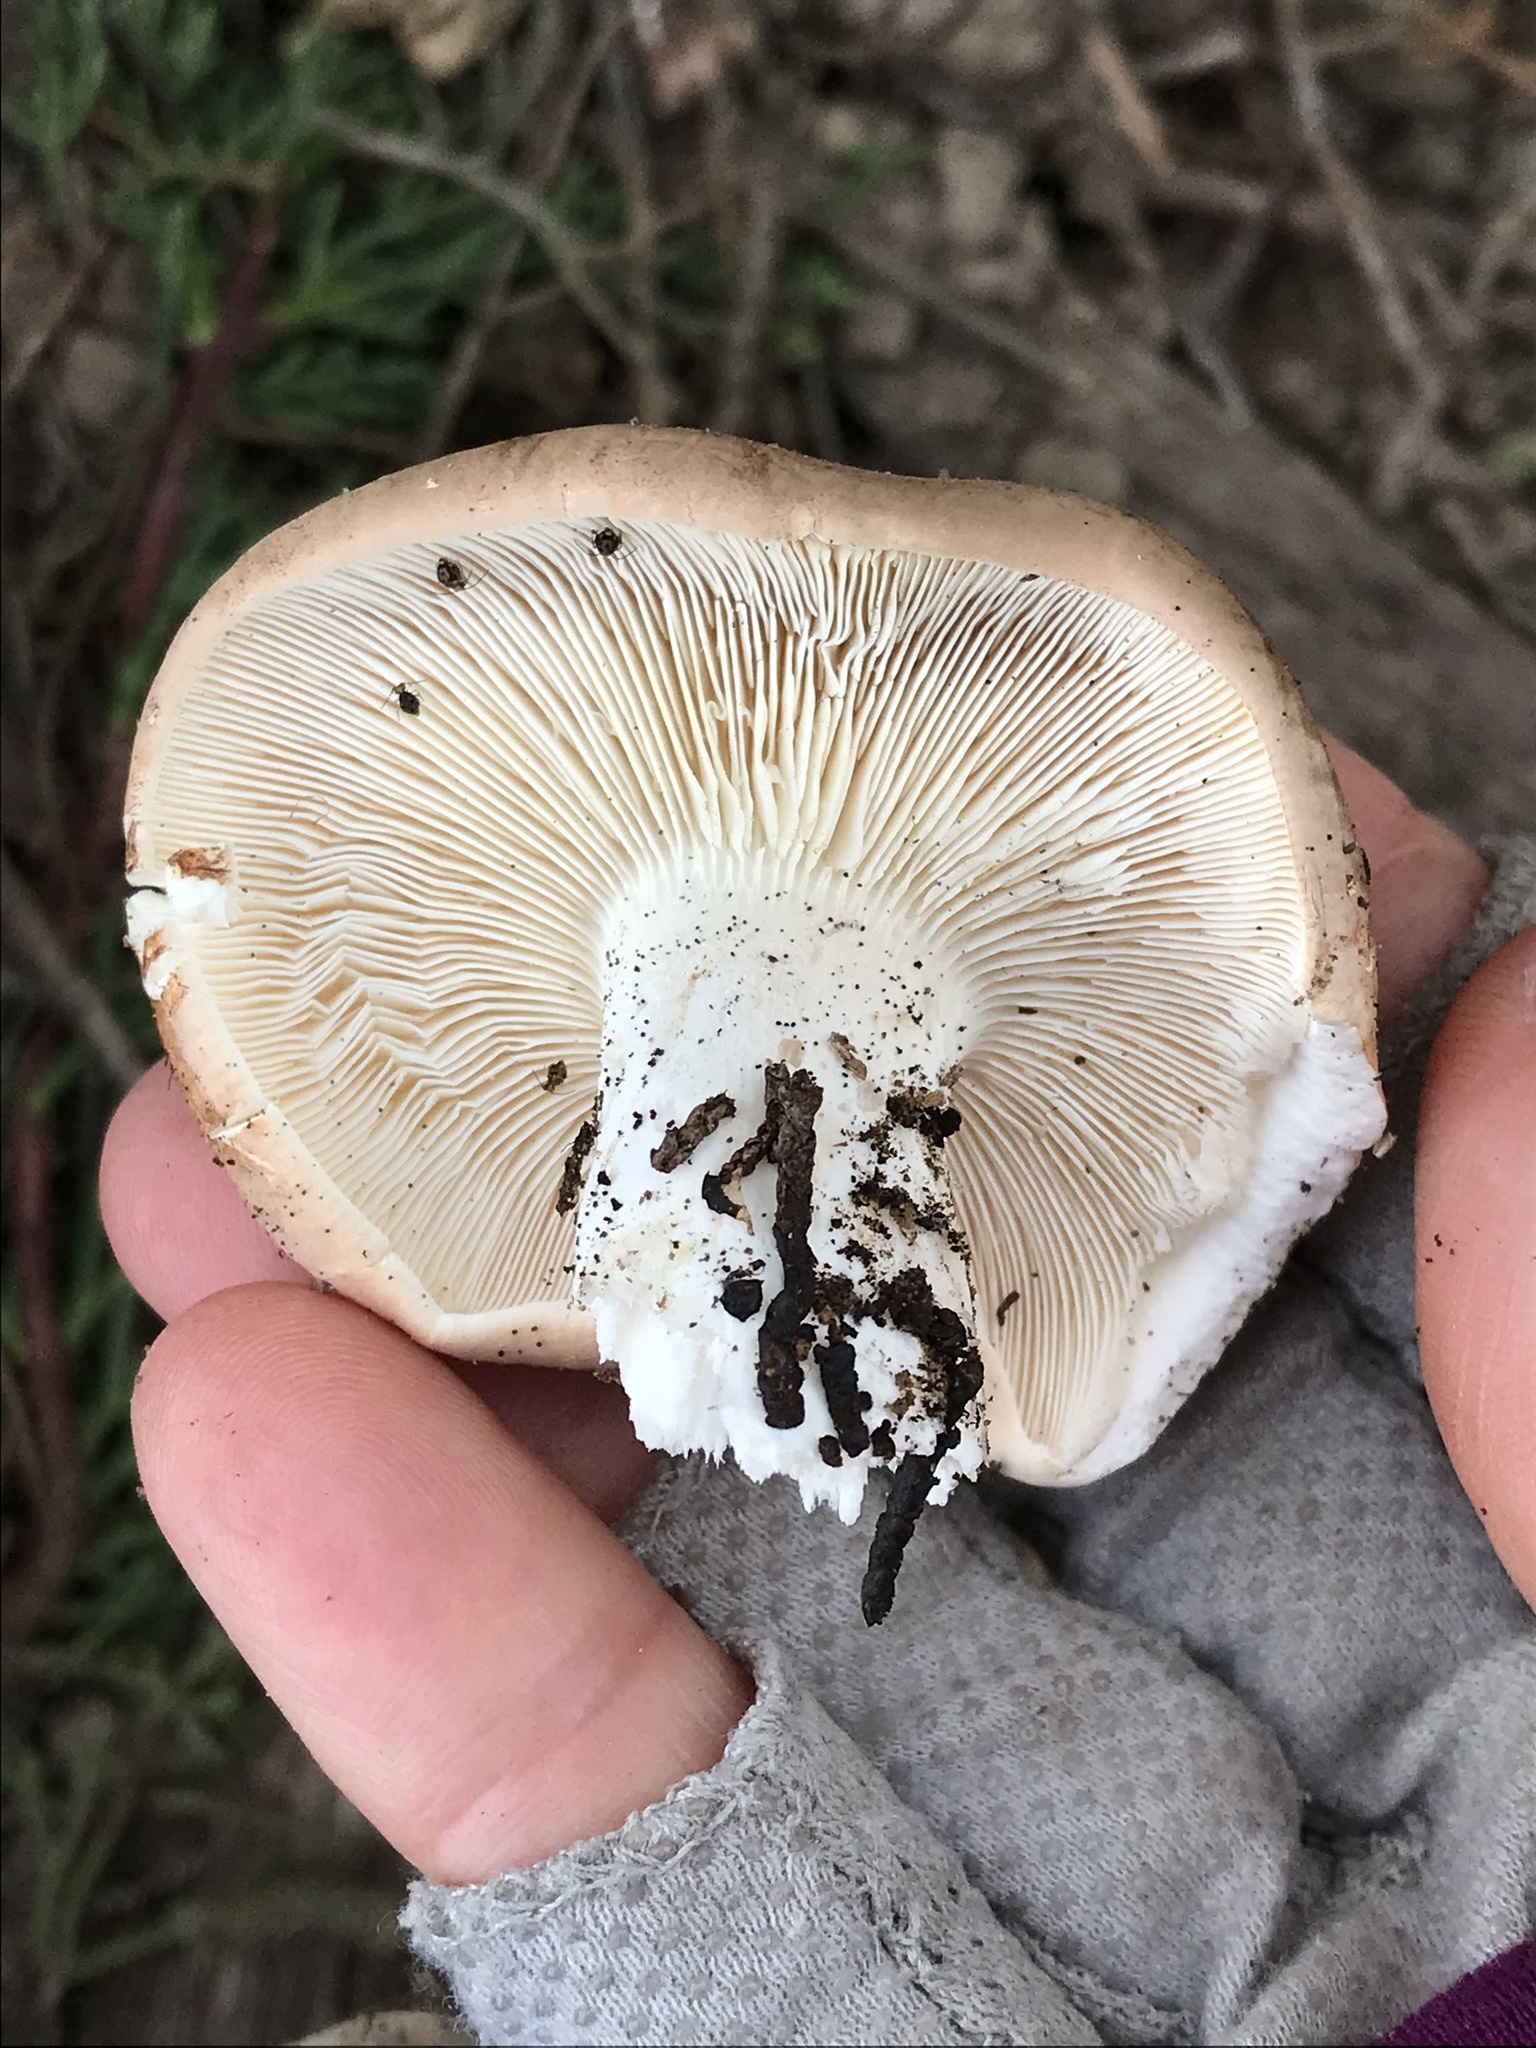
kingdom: Fungi
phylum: Basidiomycota
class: Agaricomycetes
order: Agaricales
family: Tricholomataceae
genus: Leucopaxillus
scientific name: Leucopaxillus gentianeus
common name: Bitter funnel
